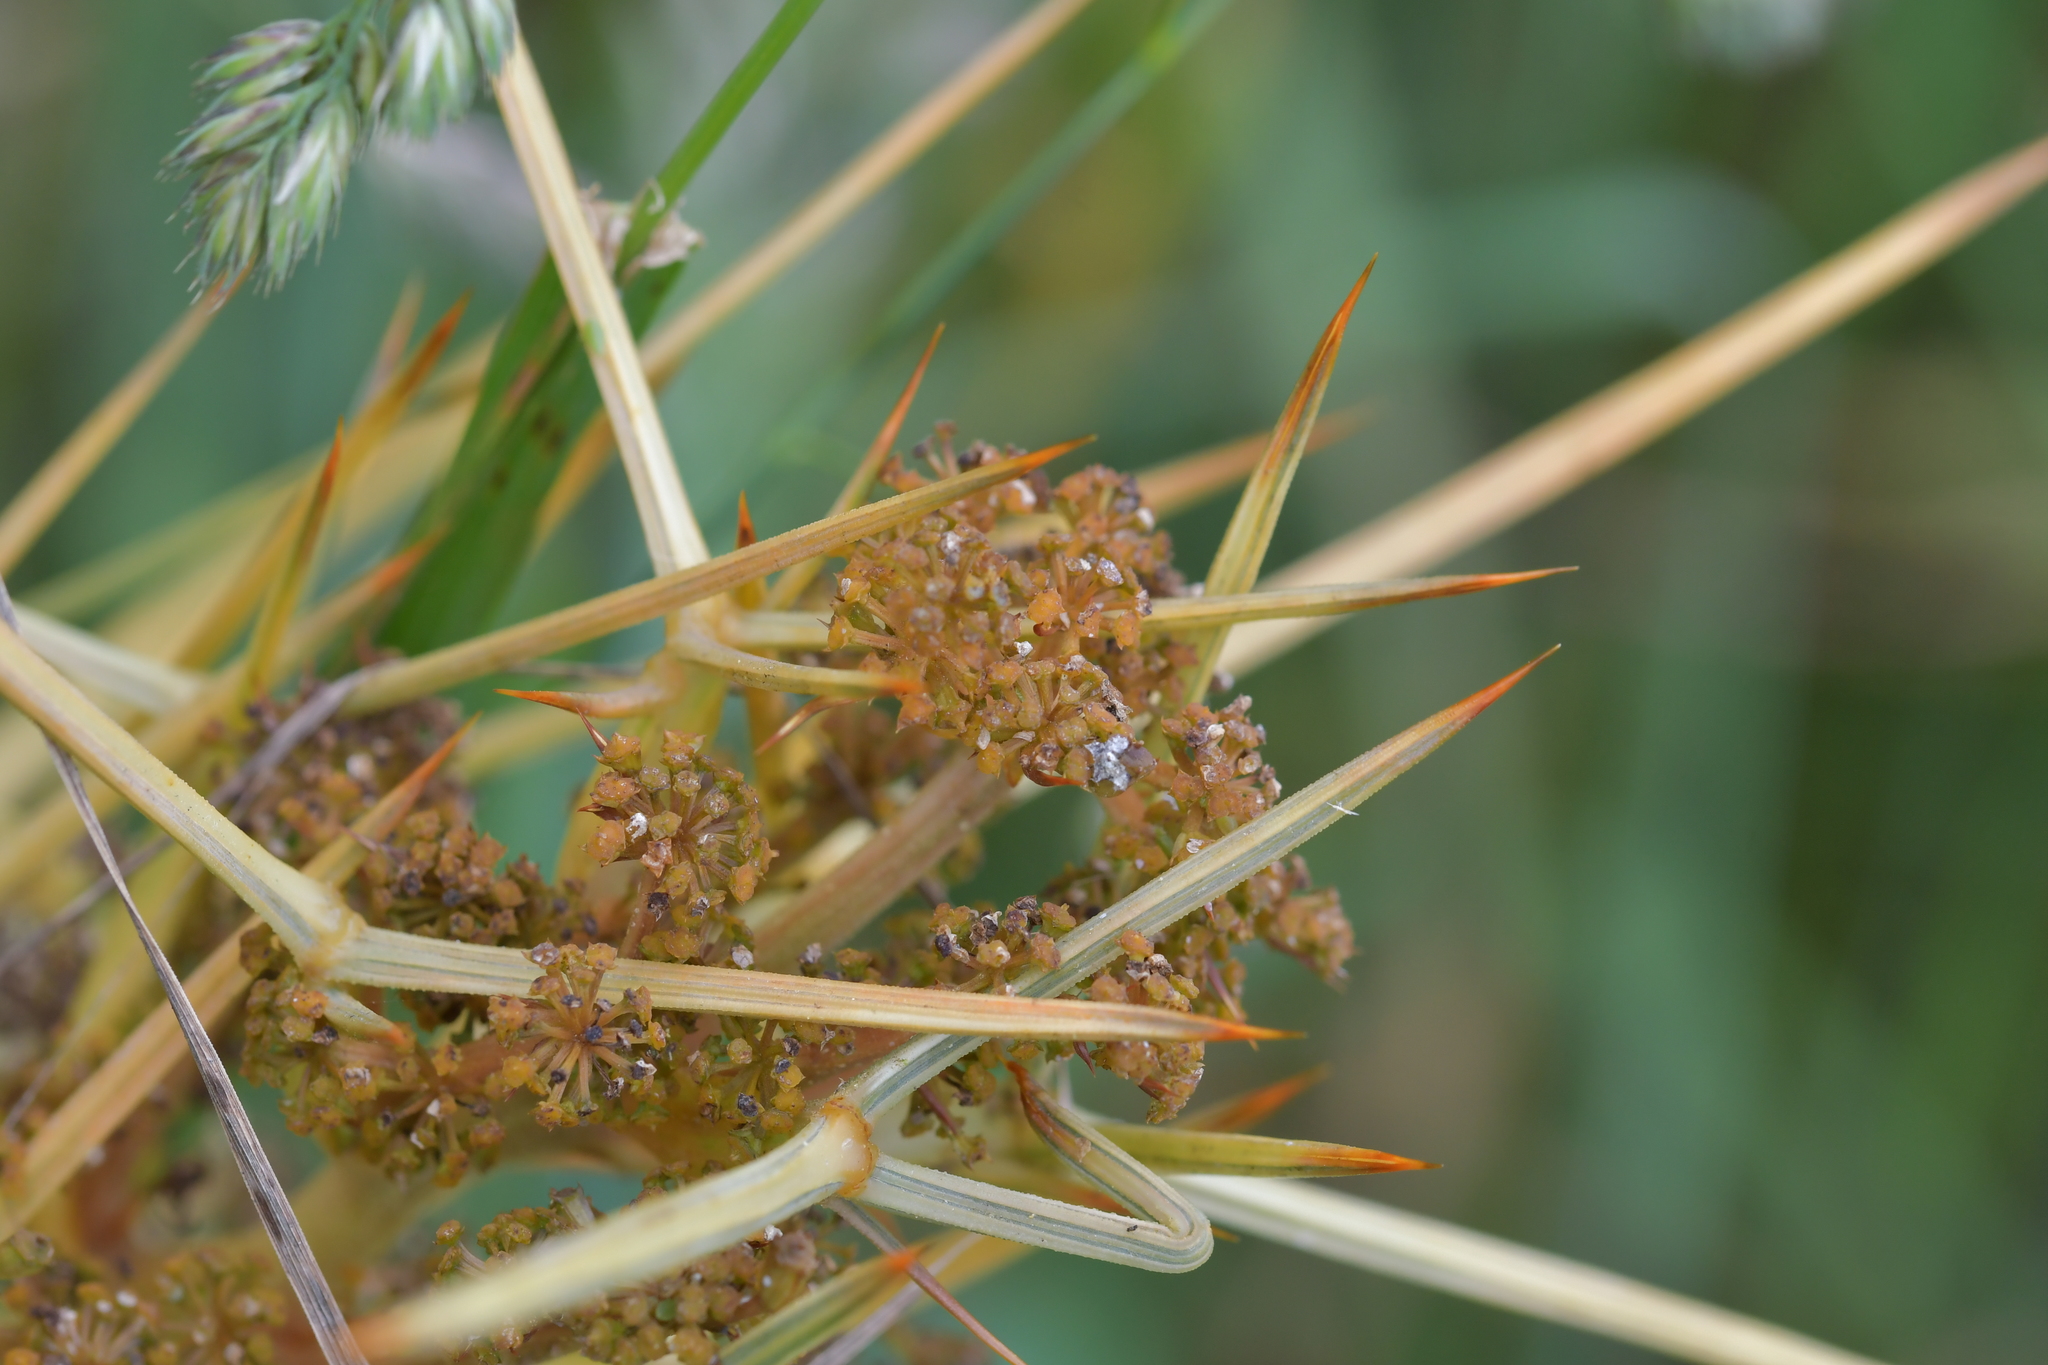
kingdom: Plantae
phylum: Tracheophyta
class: Magnoliopsida
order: Apiales
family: Apiaceae
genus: Aciphylla
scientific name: Aciphylla squarrosa
